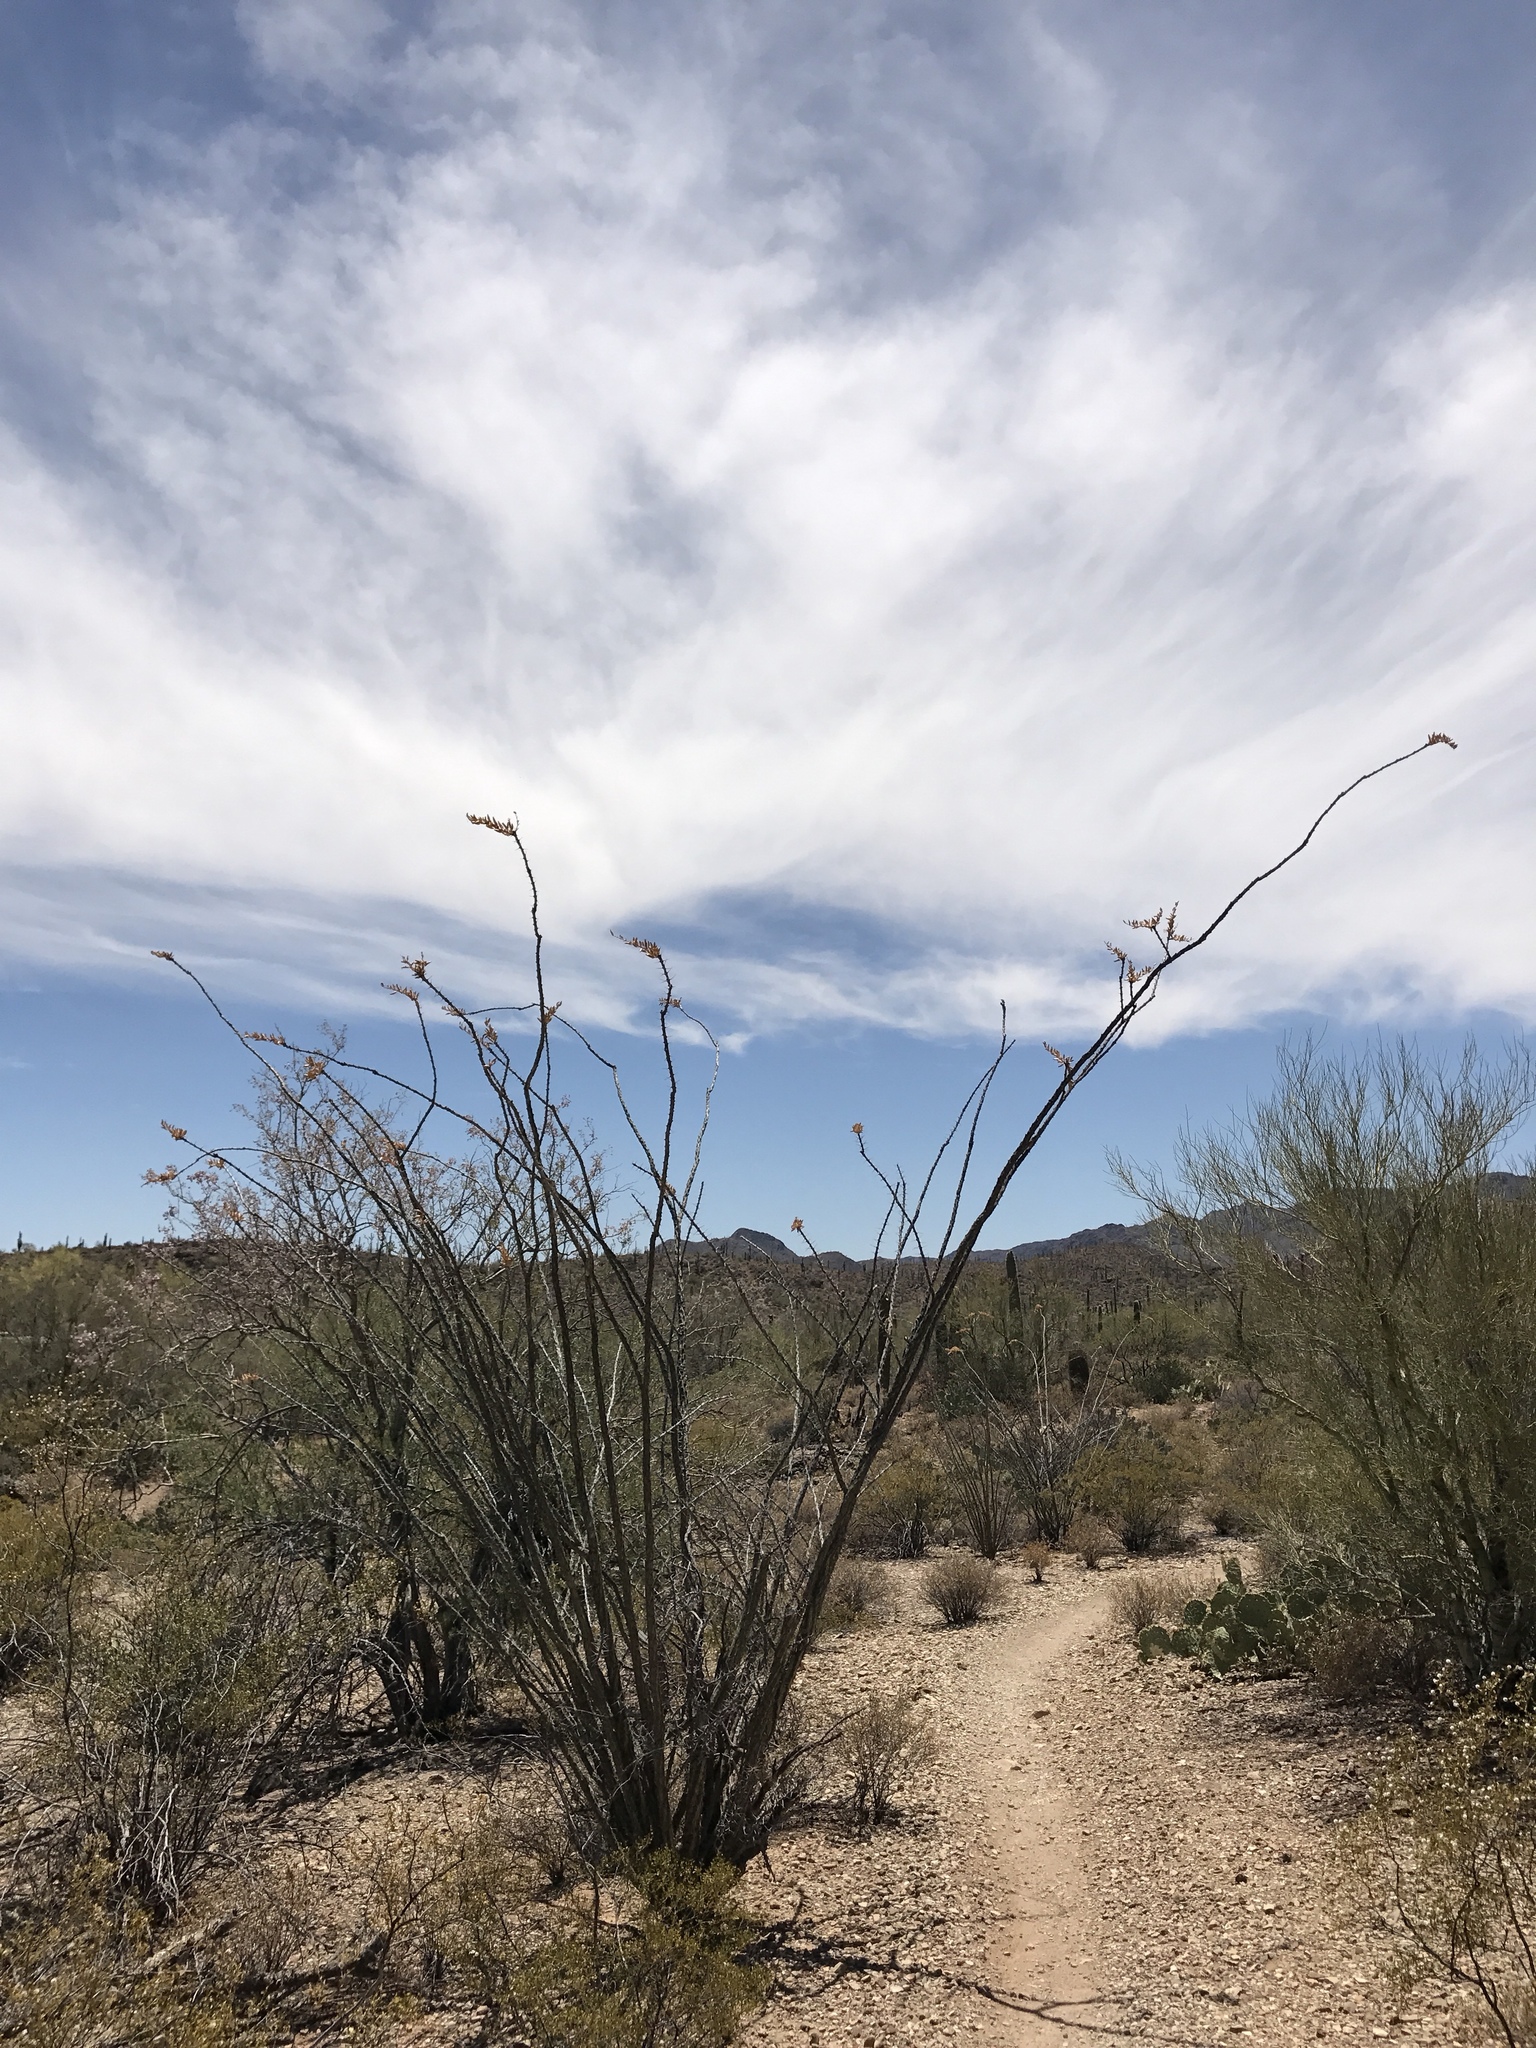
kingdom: Plantae
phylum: Tracheophyta
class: Magnoliopsida
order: Ericales
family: Fouquieriaceae
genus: Fouquieria
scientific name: Fouquieria splendens
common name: Vine-cactus
